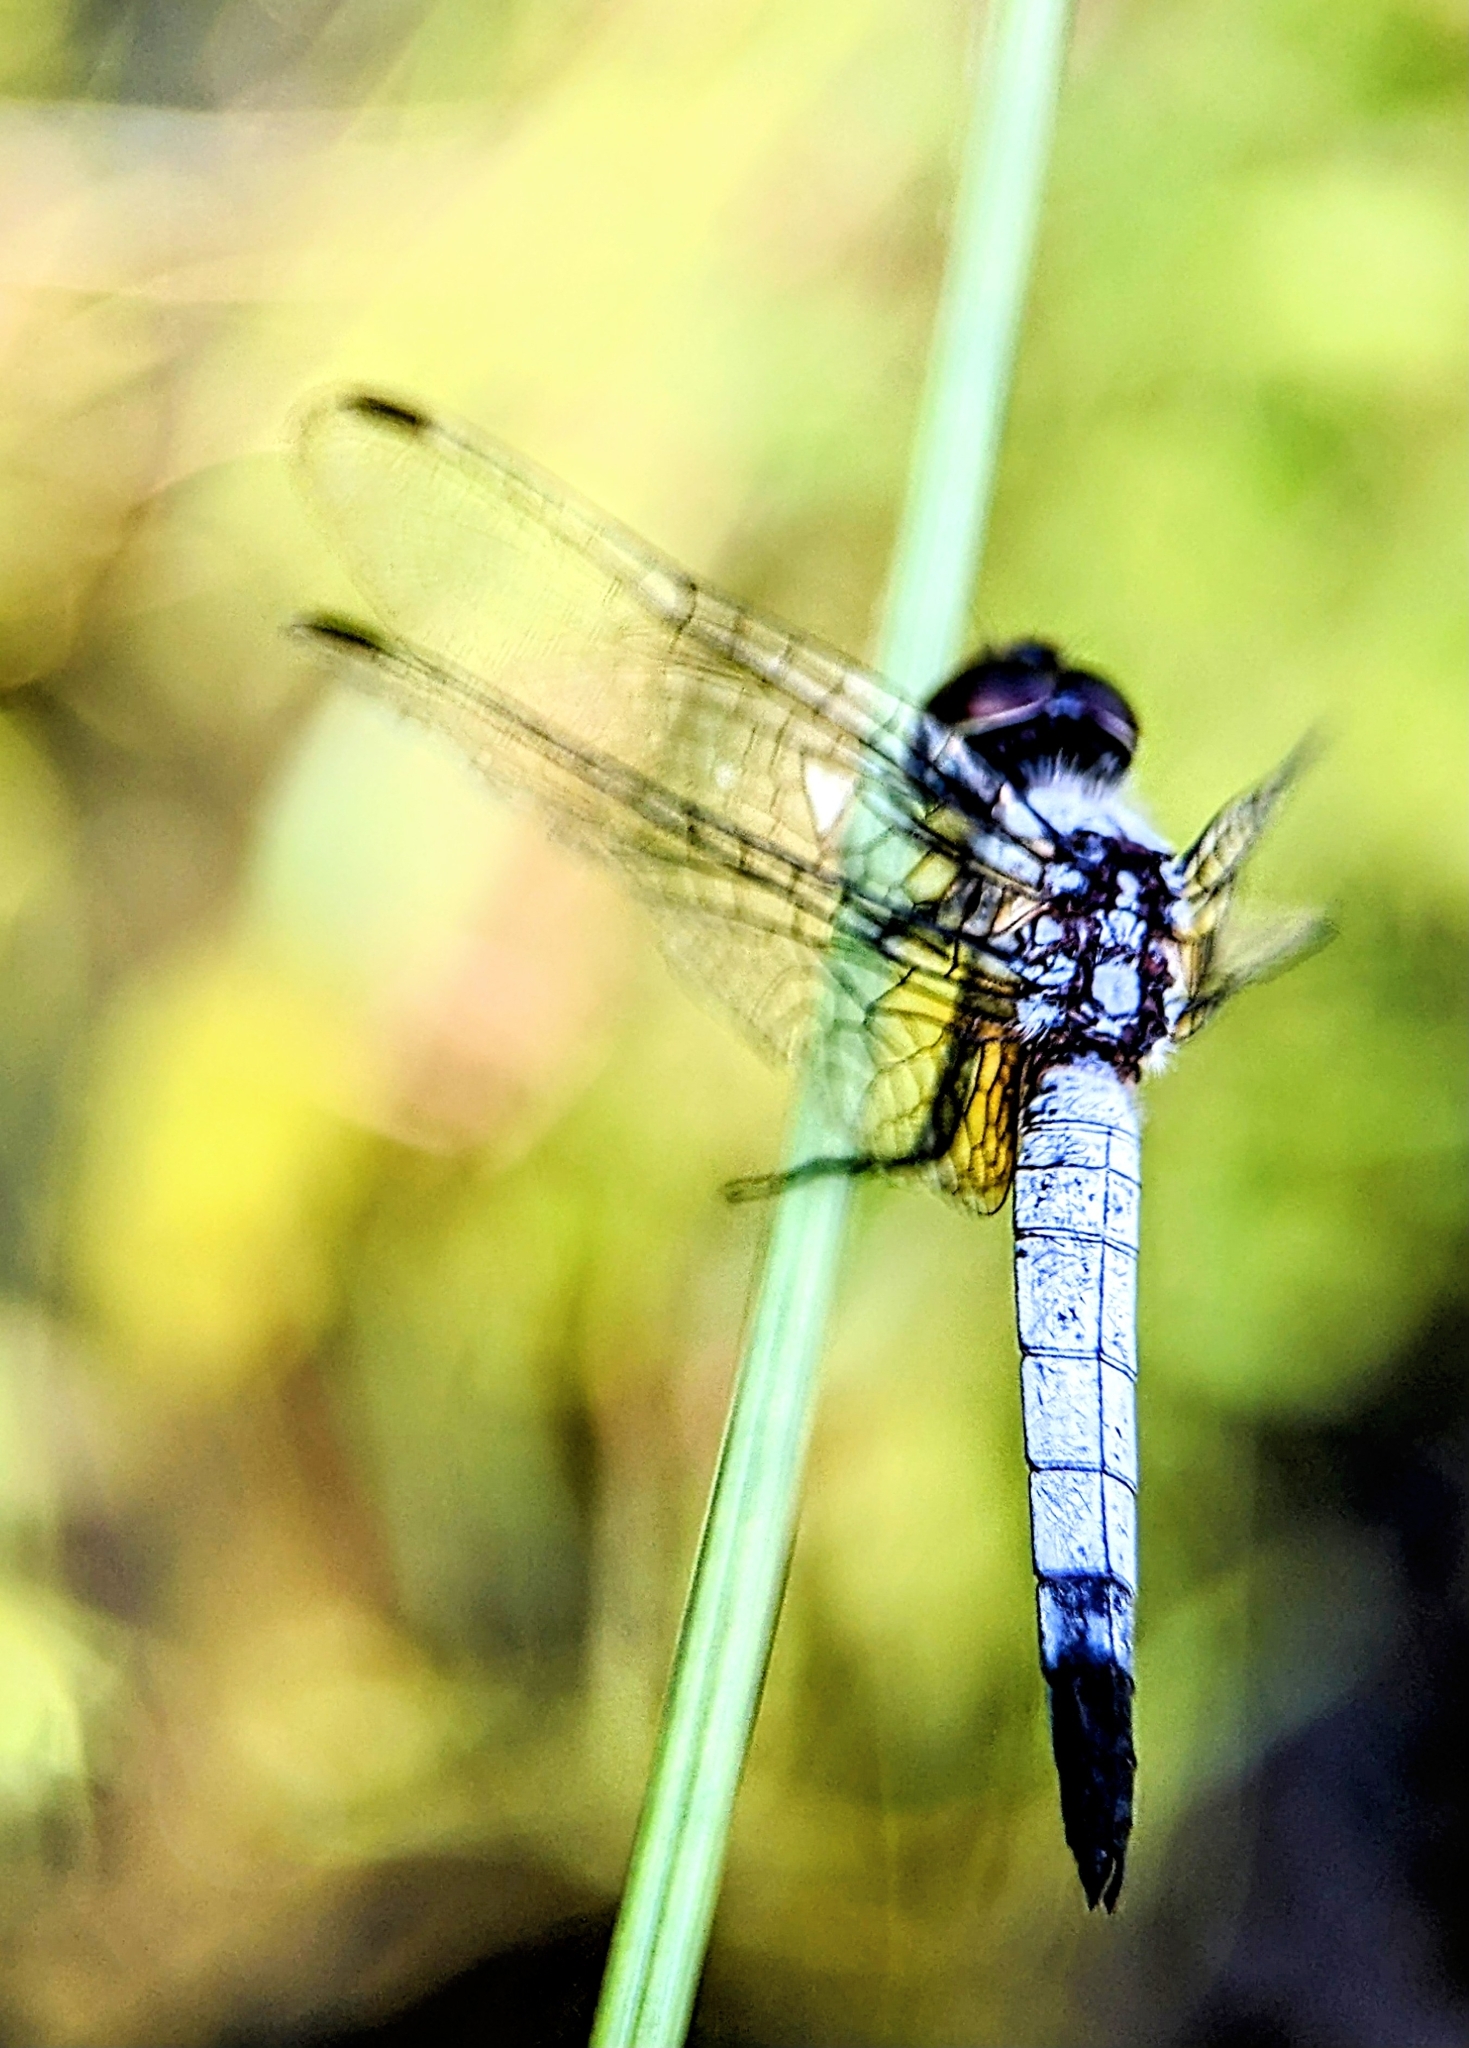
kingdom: Animalia
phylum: Arthropoda
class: Insecta
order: Odonata
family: Libellulidae
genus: Aethriamanta
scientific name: Aethriamanta gracilis
